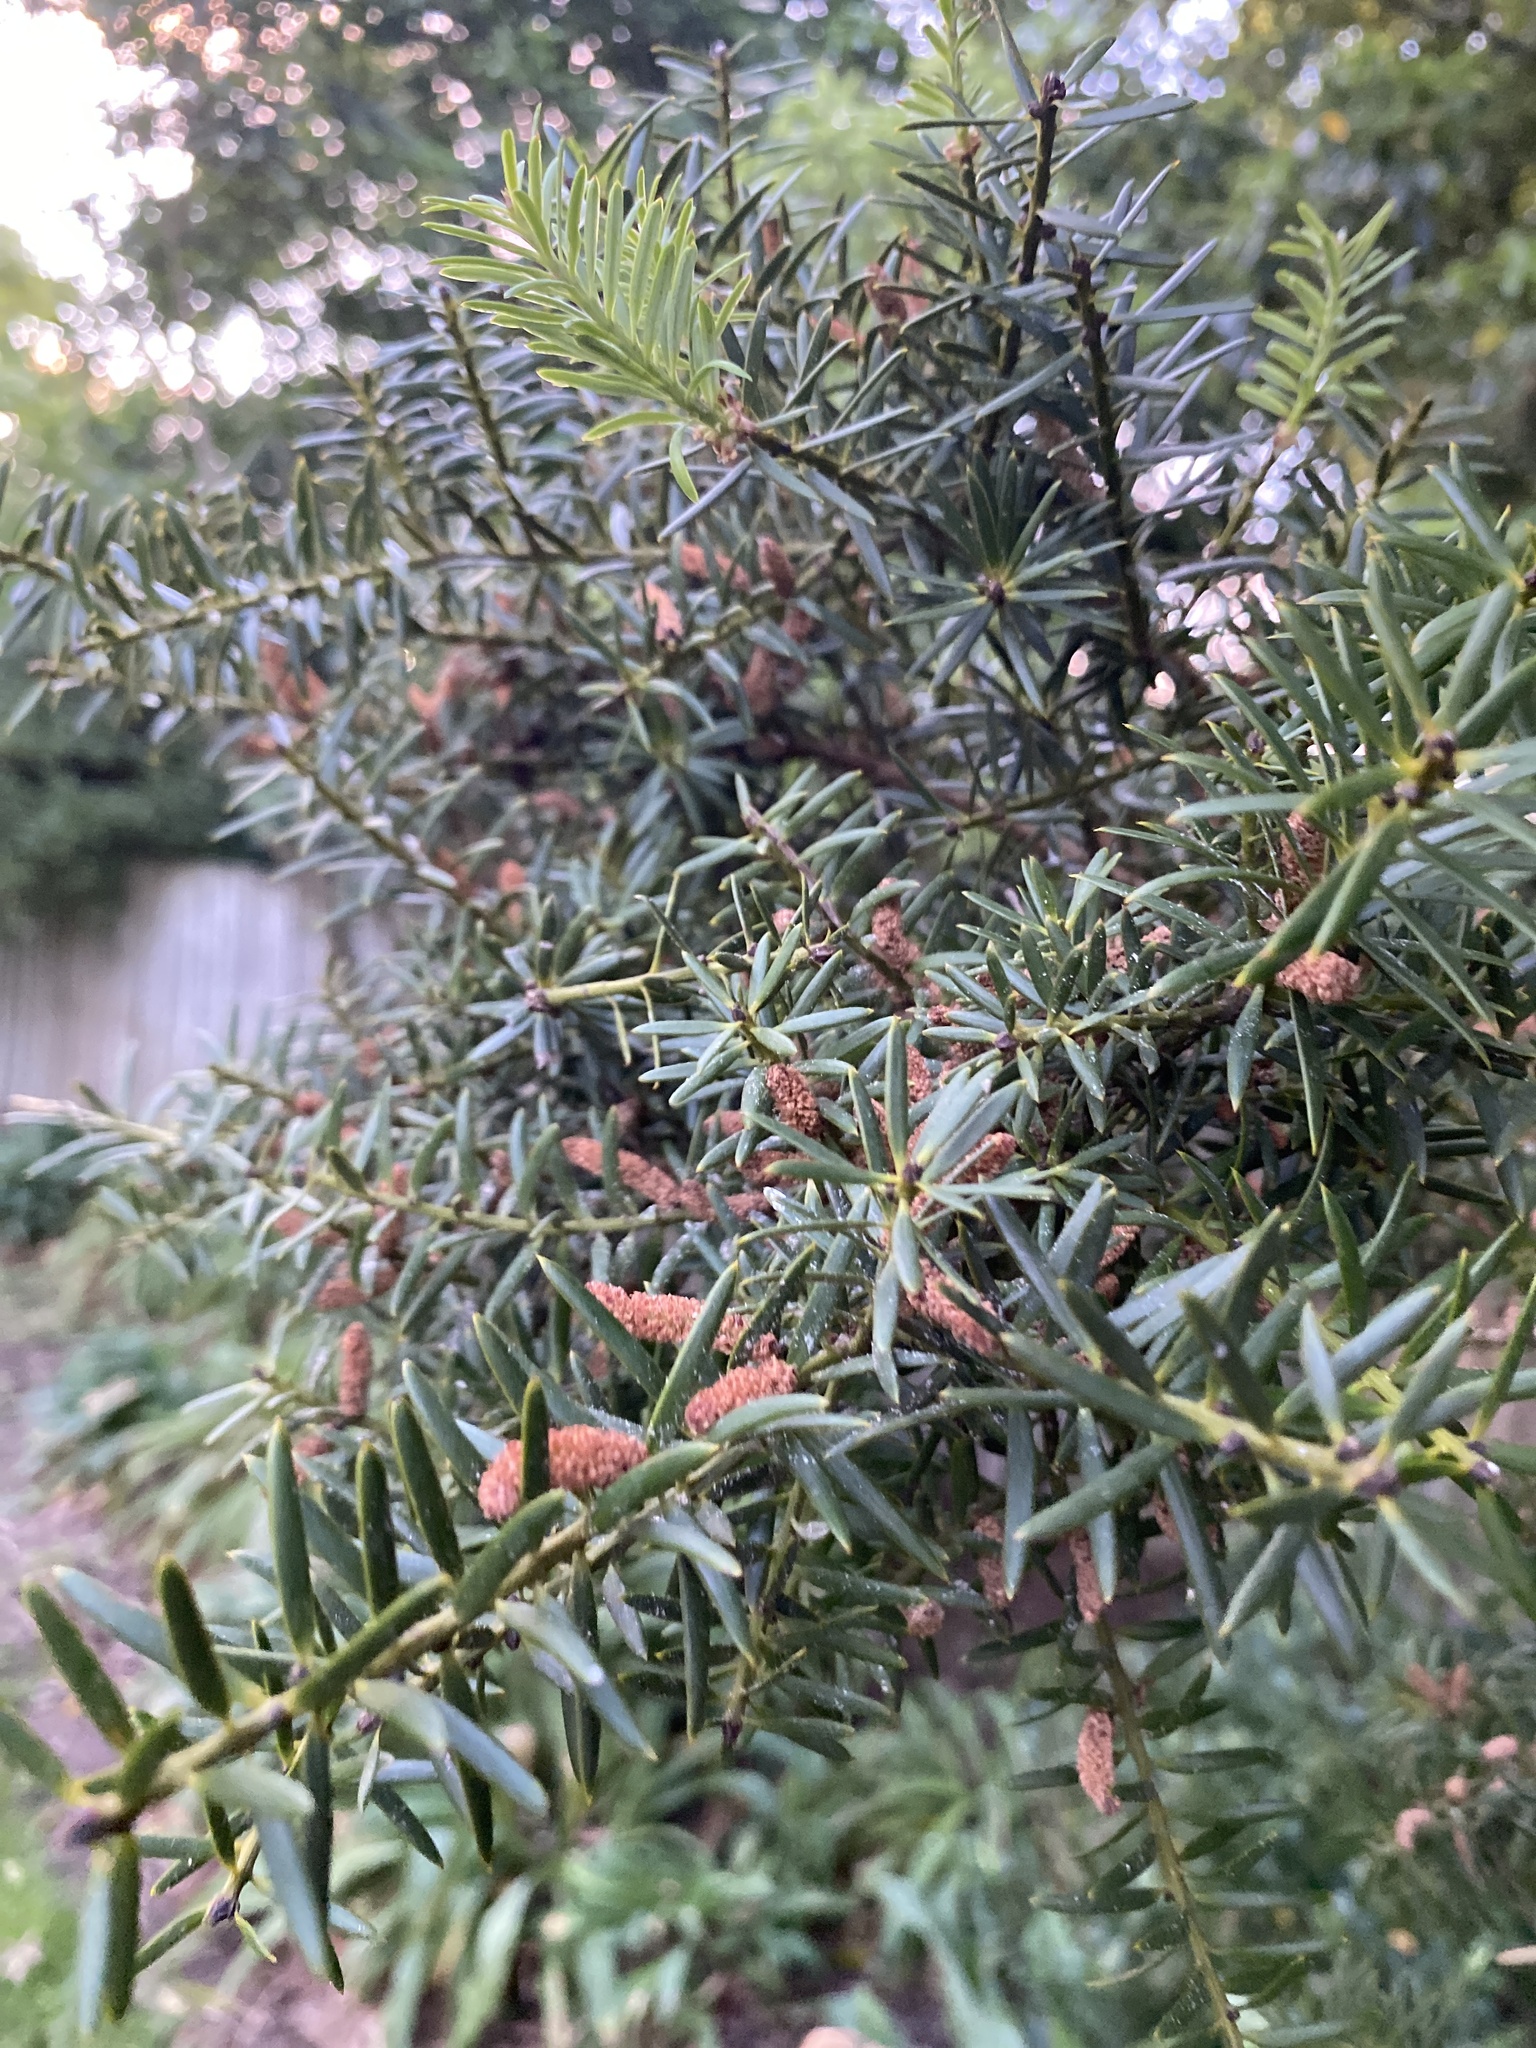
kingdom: Plantae
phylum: Tracheophyta
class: Pinopsida
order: Pinales
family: Podocarpaceae
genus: Podocarpus
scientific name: Podocarpus totara
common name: Totara
